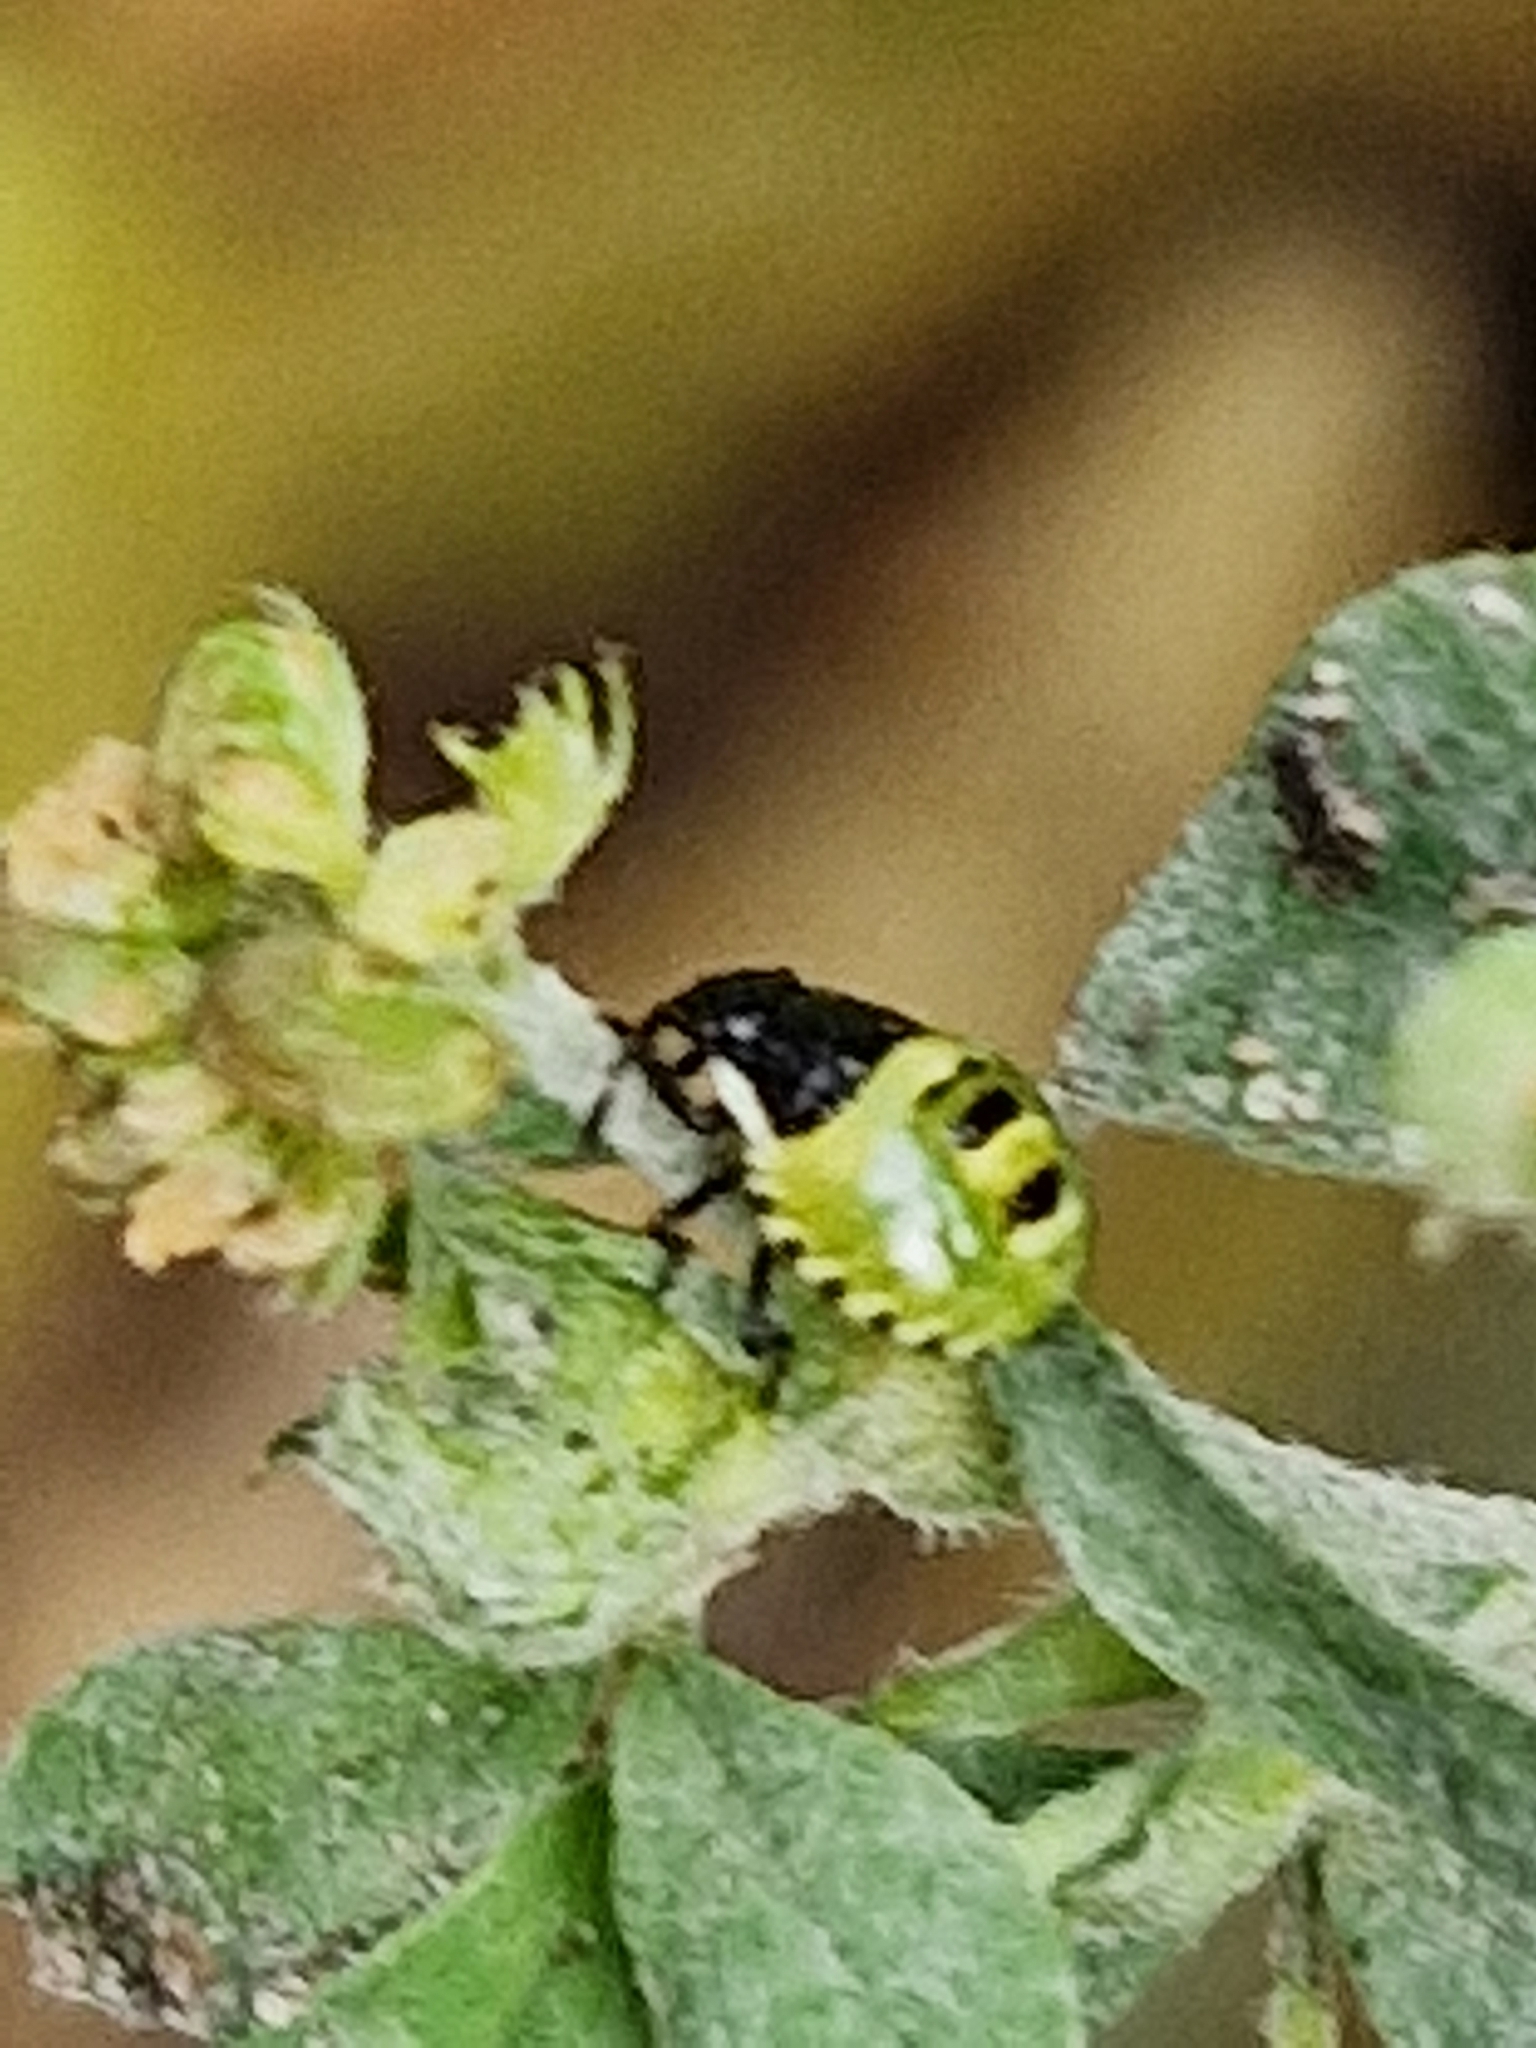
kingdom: Animalia
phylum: Arthropoda
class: Insecta
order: Hemiptera
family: Pentatomidae
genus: Palomena
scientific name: Palomena prasina
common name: Green shieldbug
